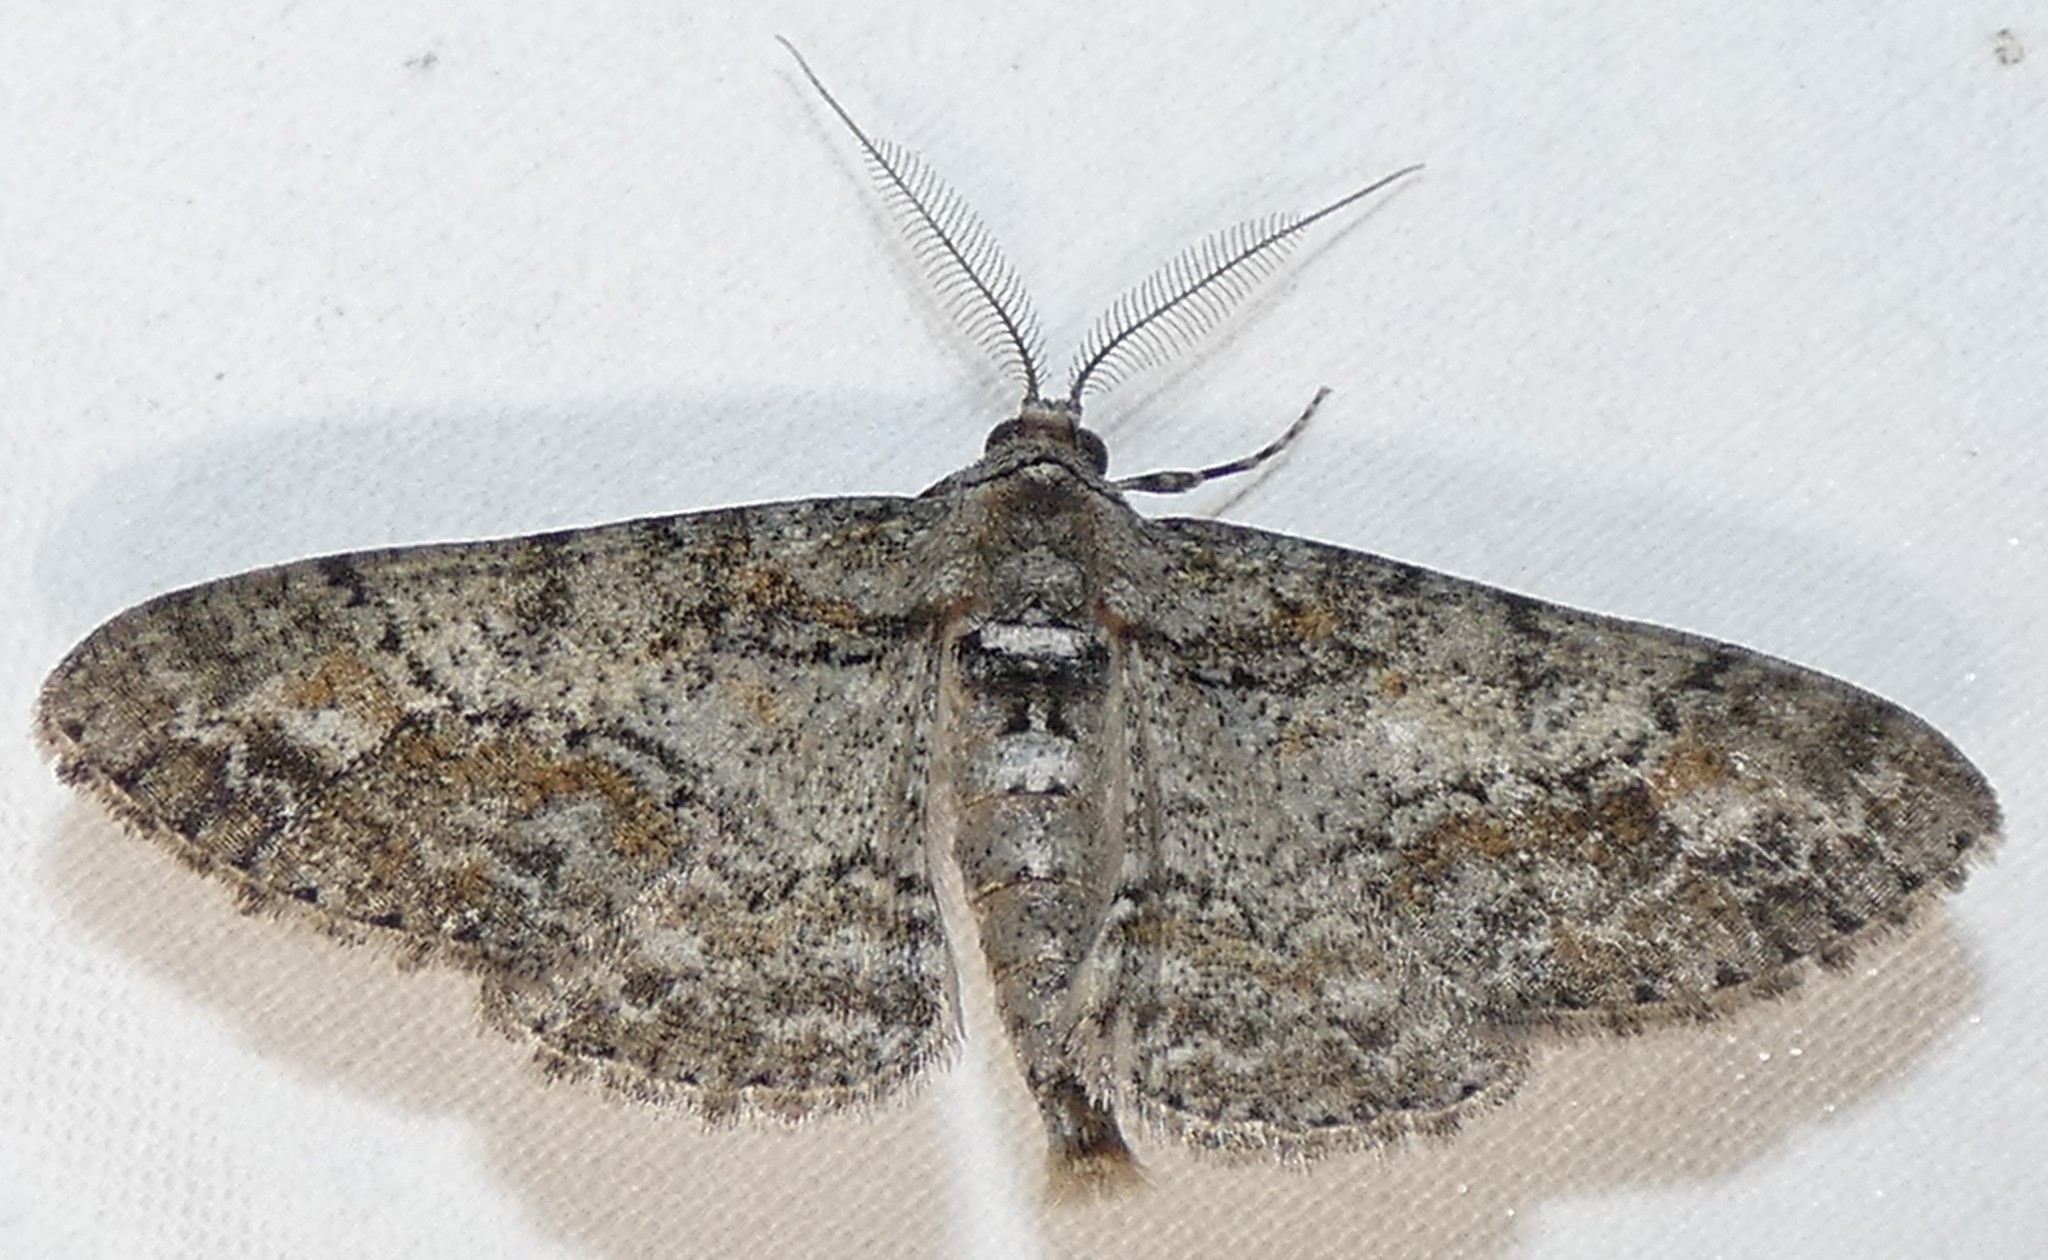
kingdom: Animalia
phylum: Arthropoda
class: Insecta
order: Lepidoptera
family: Geometridae
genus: Cleora
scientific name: Cleora sublunaria
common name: Double-lined gray
